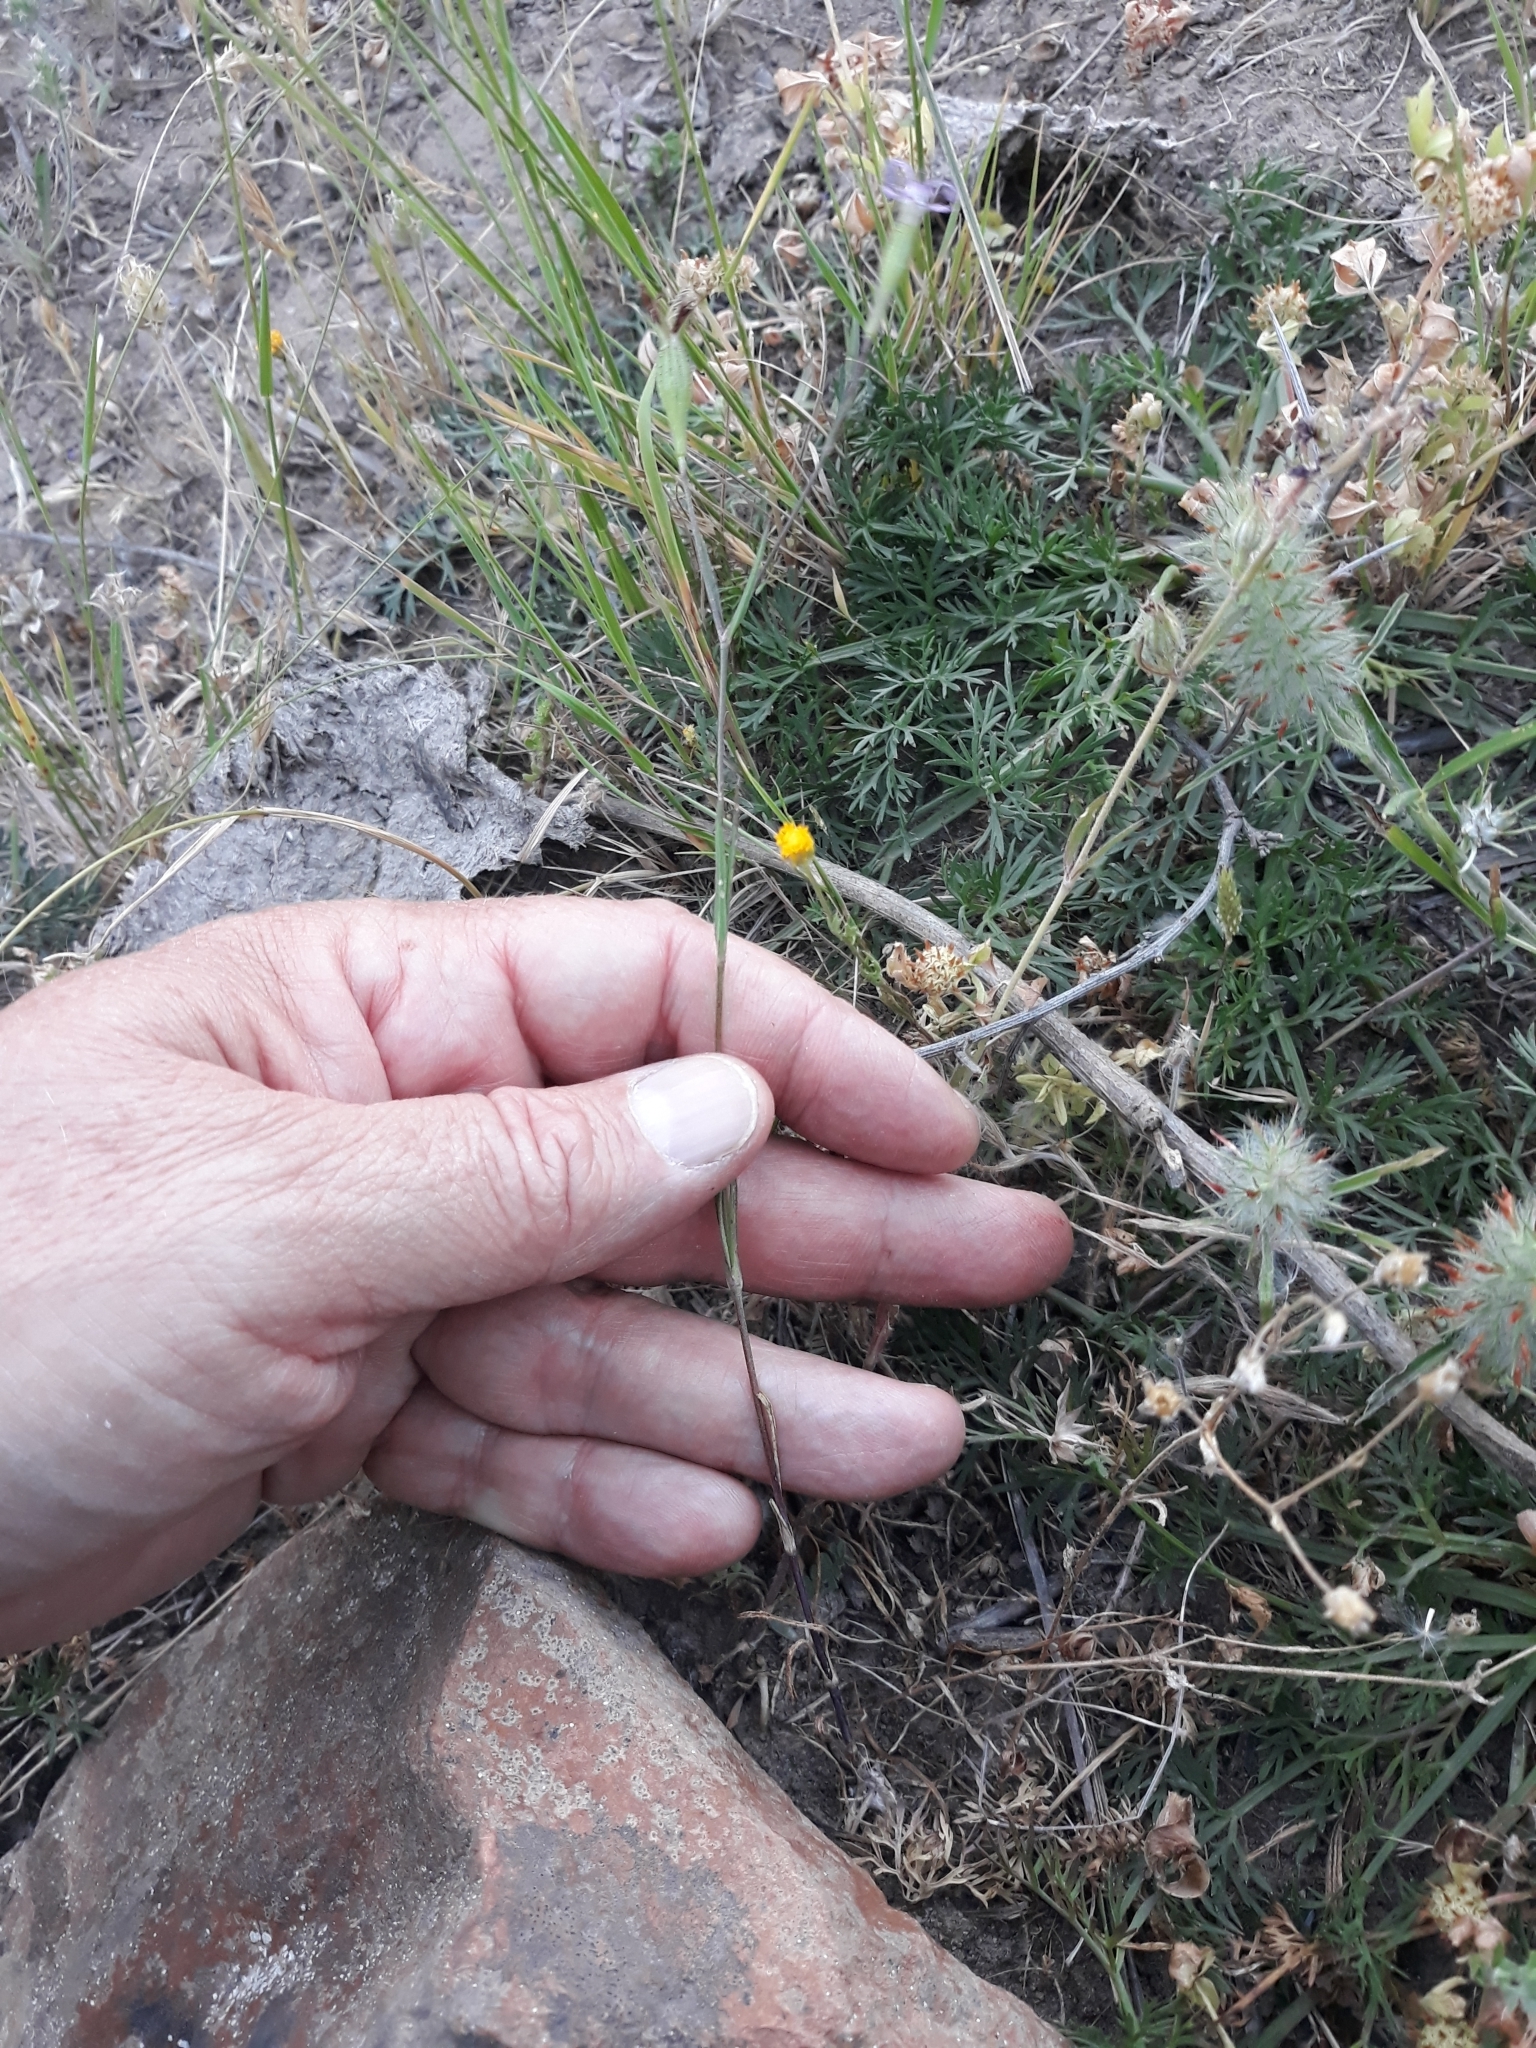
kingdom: Plantae
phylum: Tracheophyta
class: Magnoliopsida
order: Caryophyllales
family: Caryophyllaceae
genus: Eudianthe
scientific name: Eudianthe coeli-rosa
